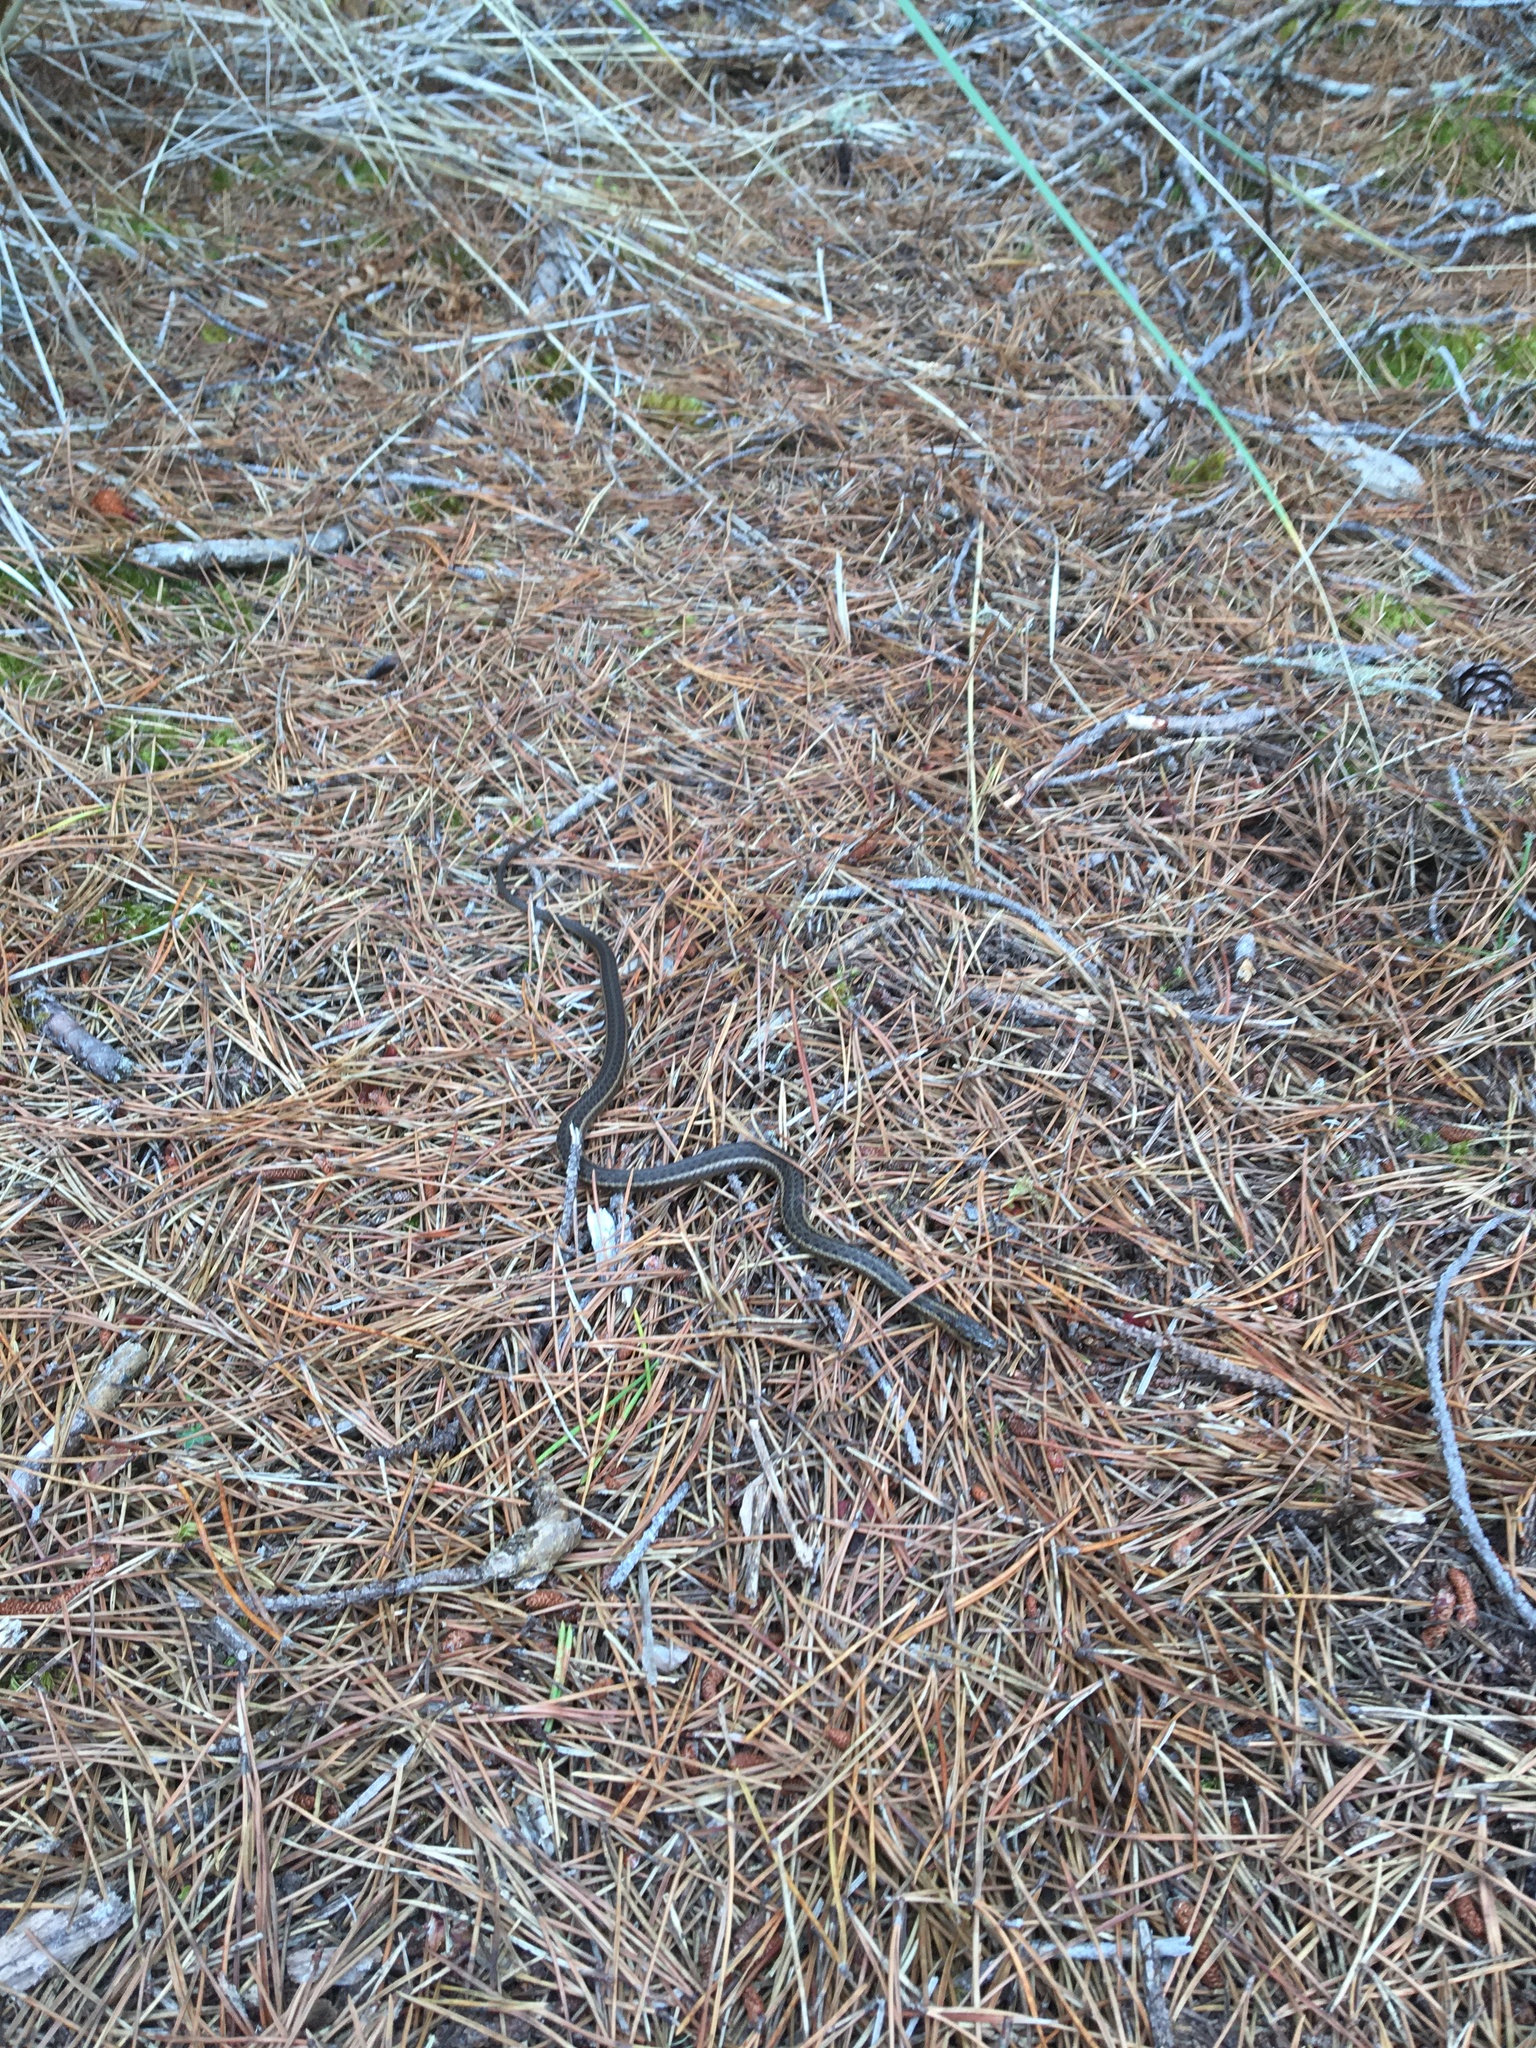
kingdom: Animalia
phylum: Chordata
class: Squamata
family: Colubridae
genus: Thamnophis
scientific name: Thamnophis ordinoides
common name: Northwestern garter snake
